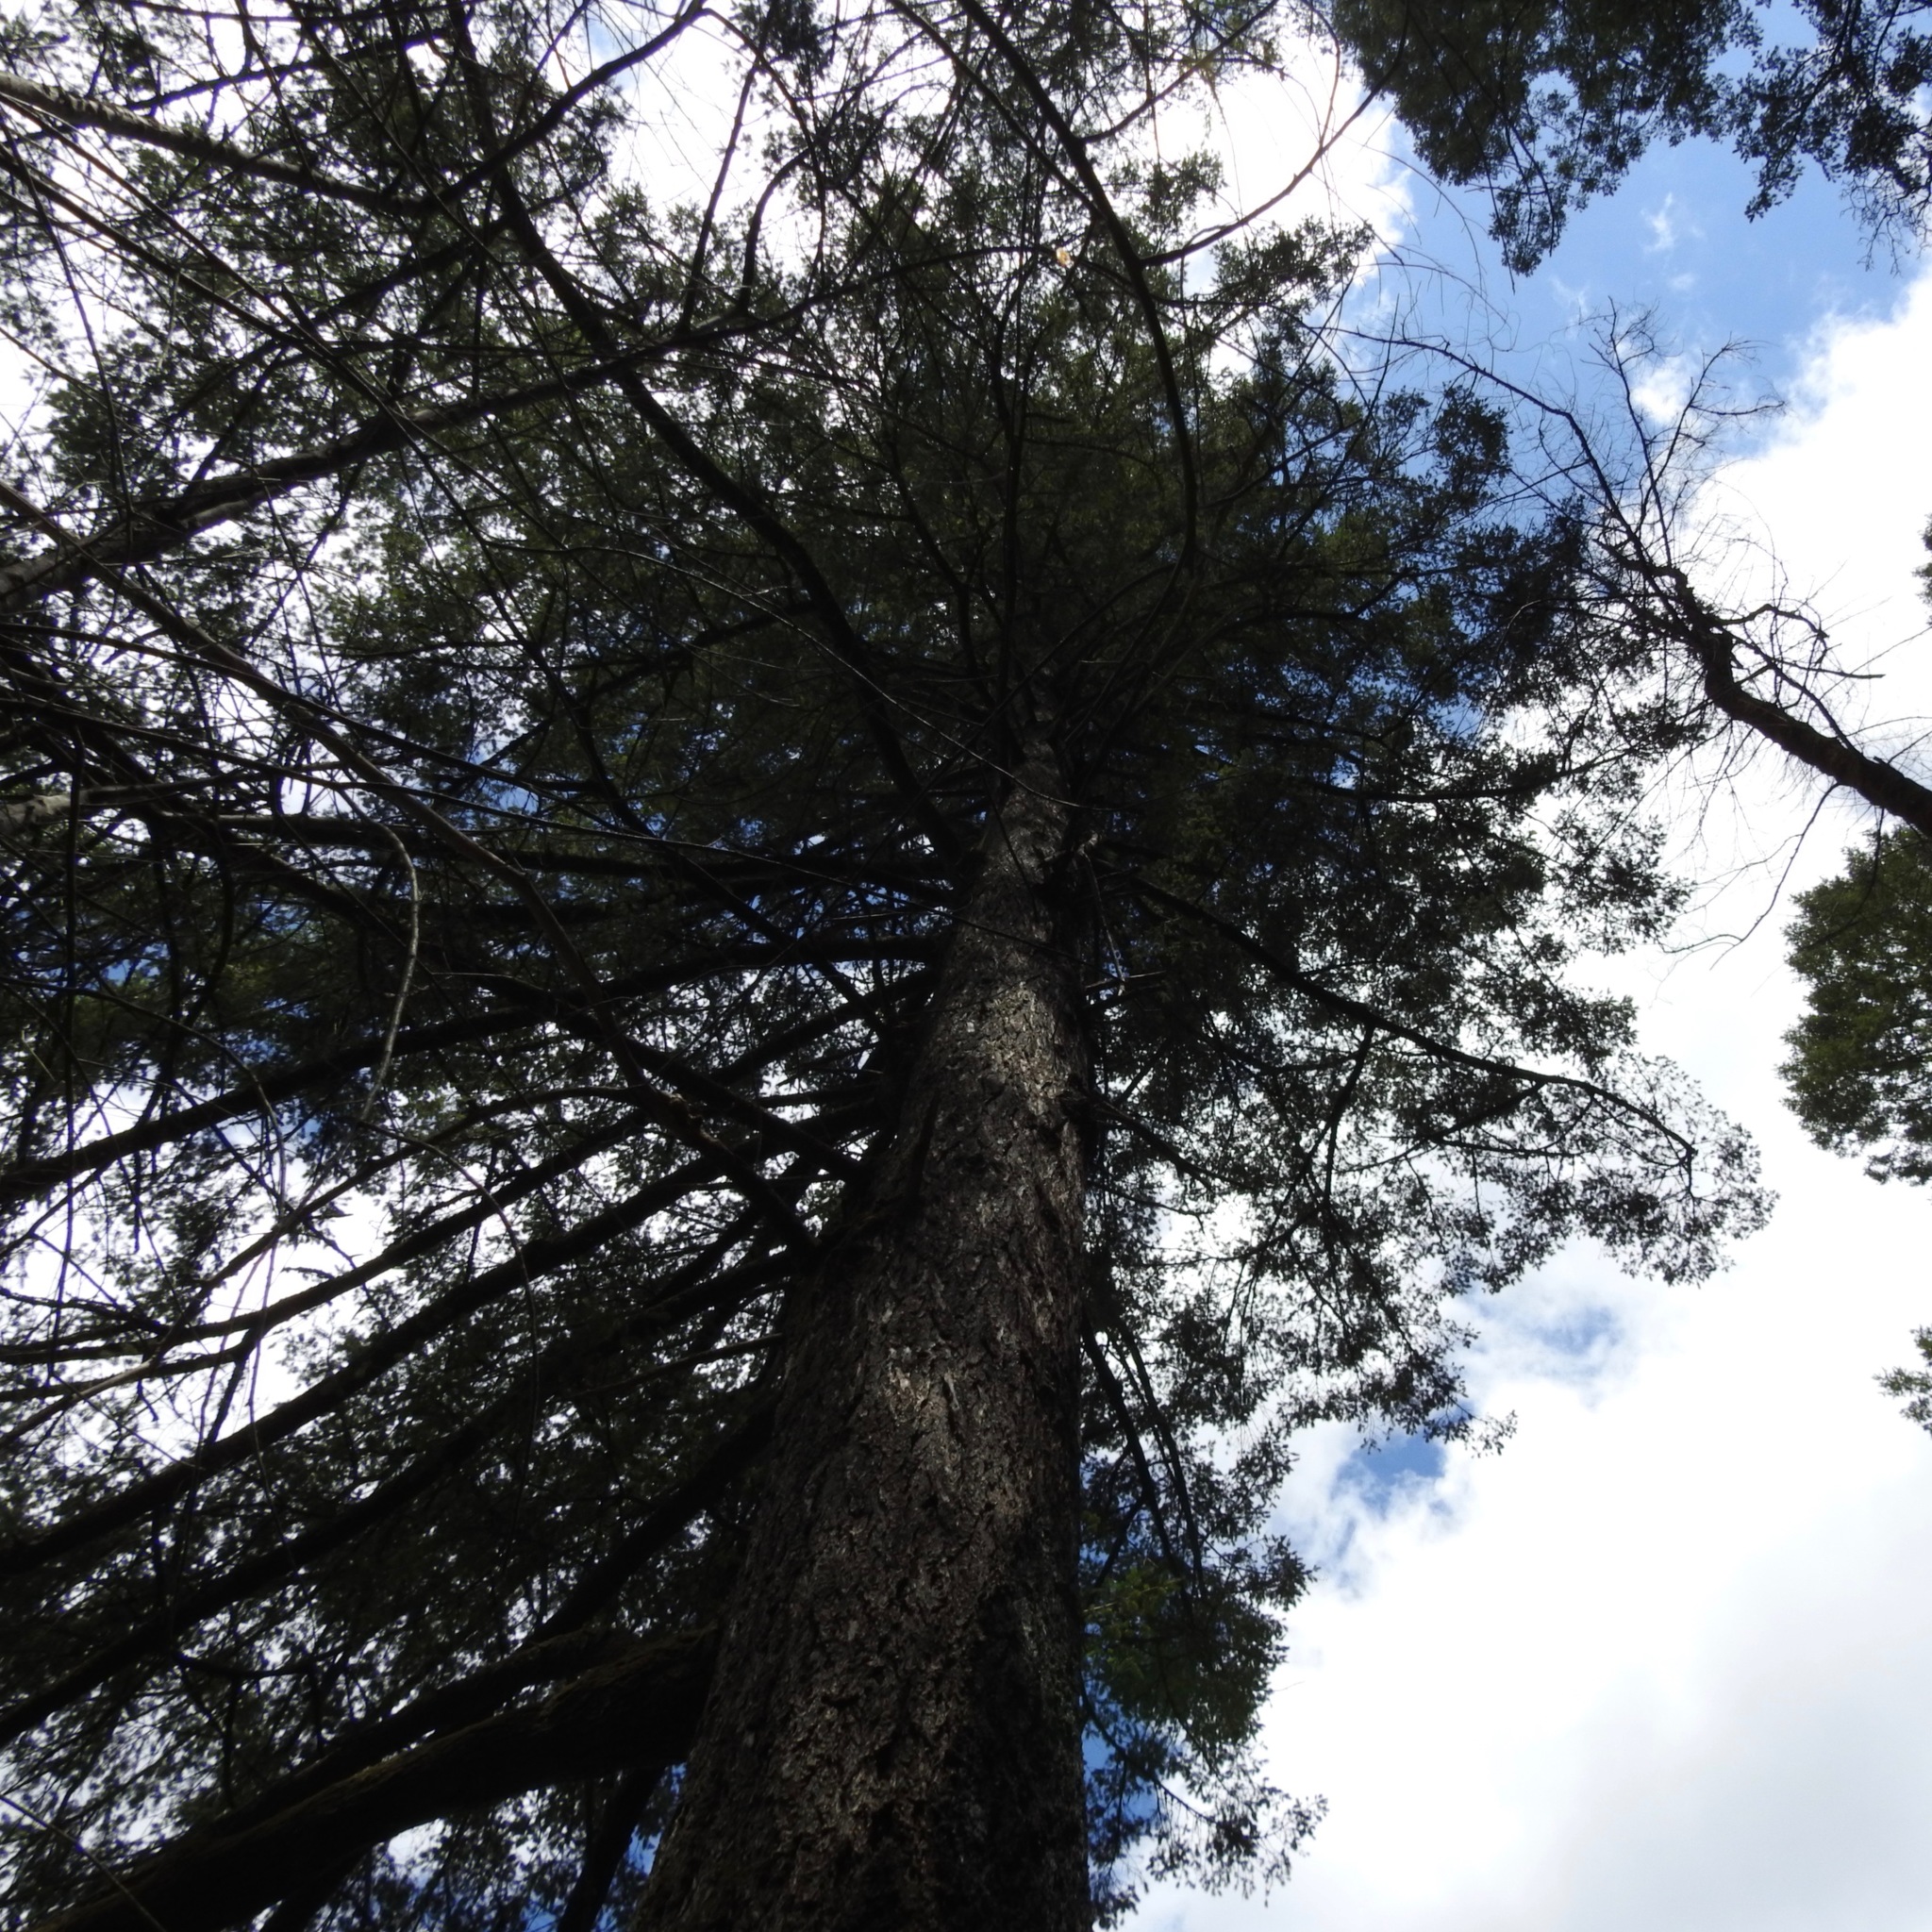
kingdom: Plantae
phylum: Tracheophyta
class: Pinopsida
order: Pinales
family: Pinaceae
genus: Pseudotsuga
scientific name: Pseudotsuga menziesii
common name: Douglas fir
